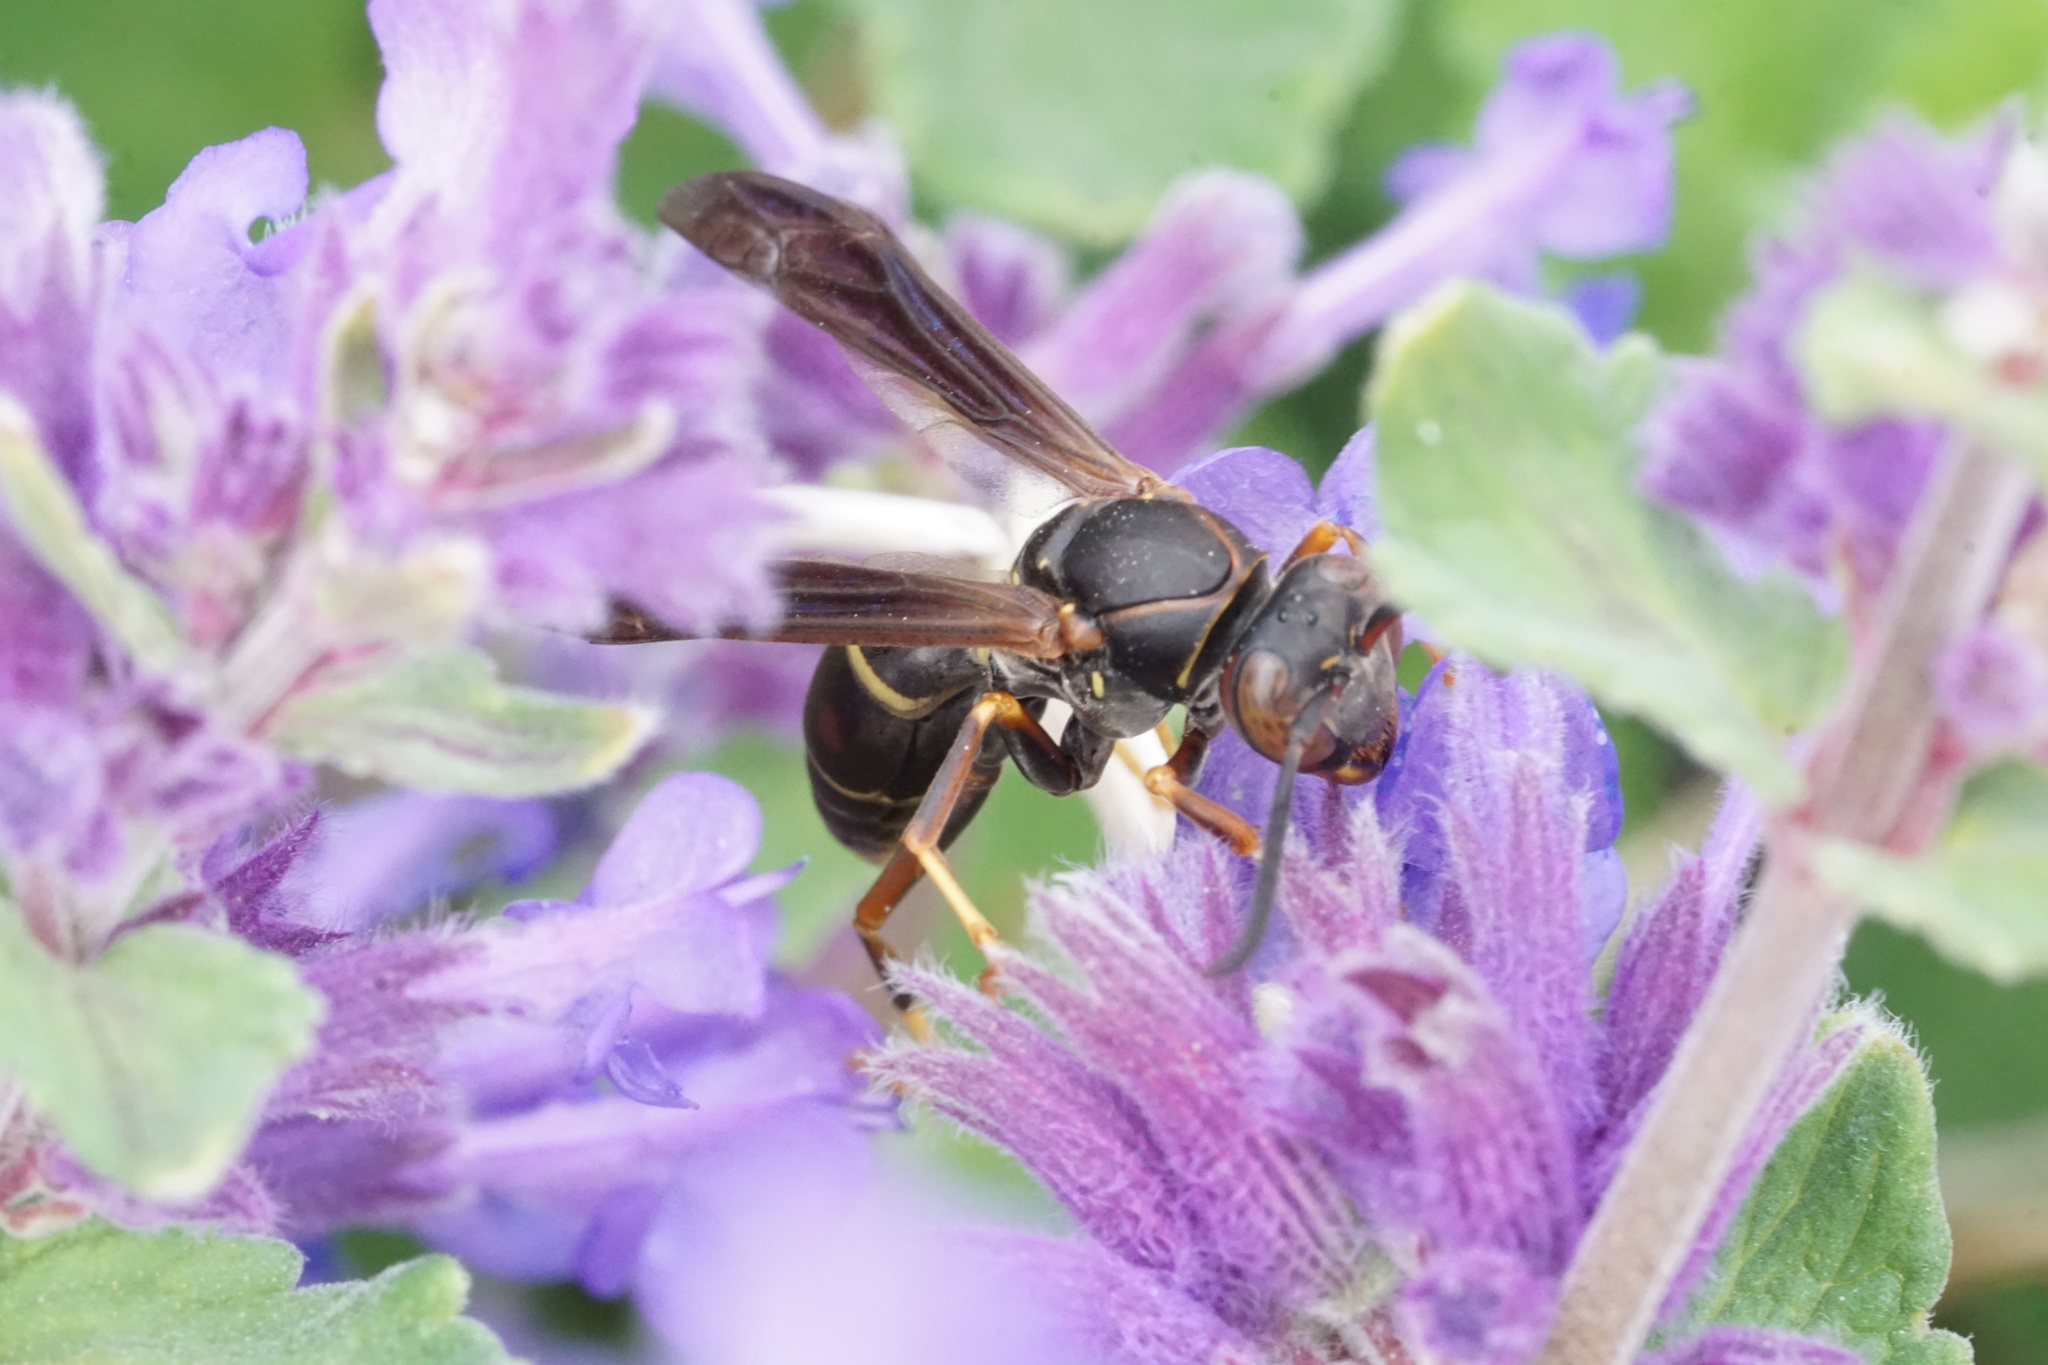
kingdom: Animalia
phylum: Arthropoda
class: Insecta
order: Hymenoptera
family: Eumenidae
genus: Polistes
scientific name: Polistes fuscatus
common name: Dark paper wasp
